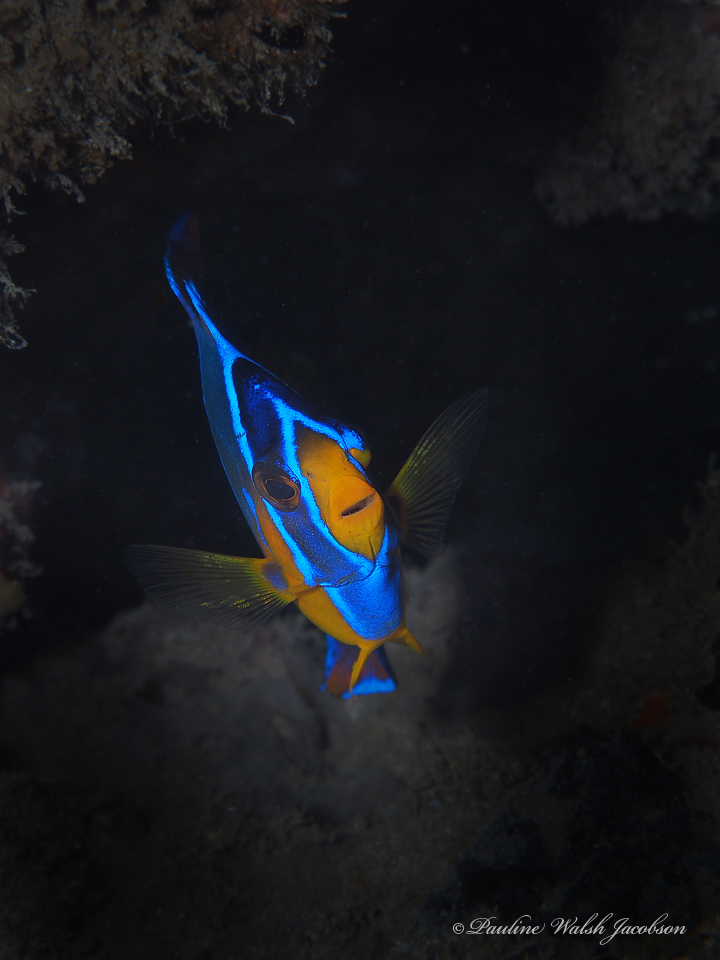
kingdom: Animalia
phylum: Chordata
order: Perciformes
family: Pomacanthidae
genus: Holacanthus
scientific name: Holacanthus ciliaris
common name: Queen angelfish
